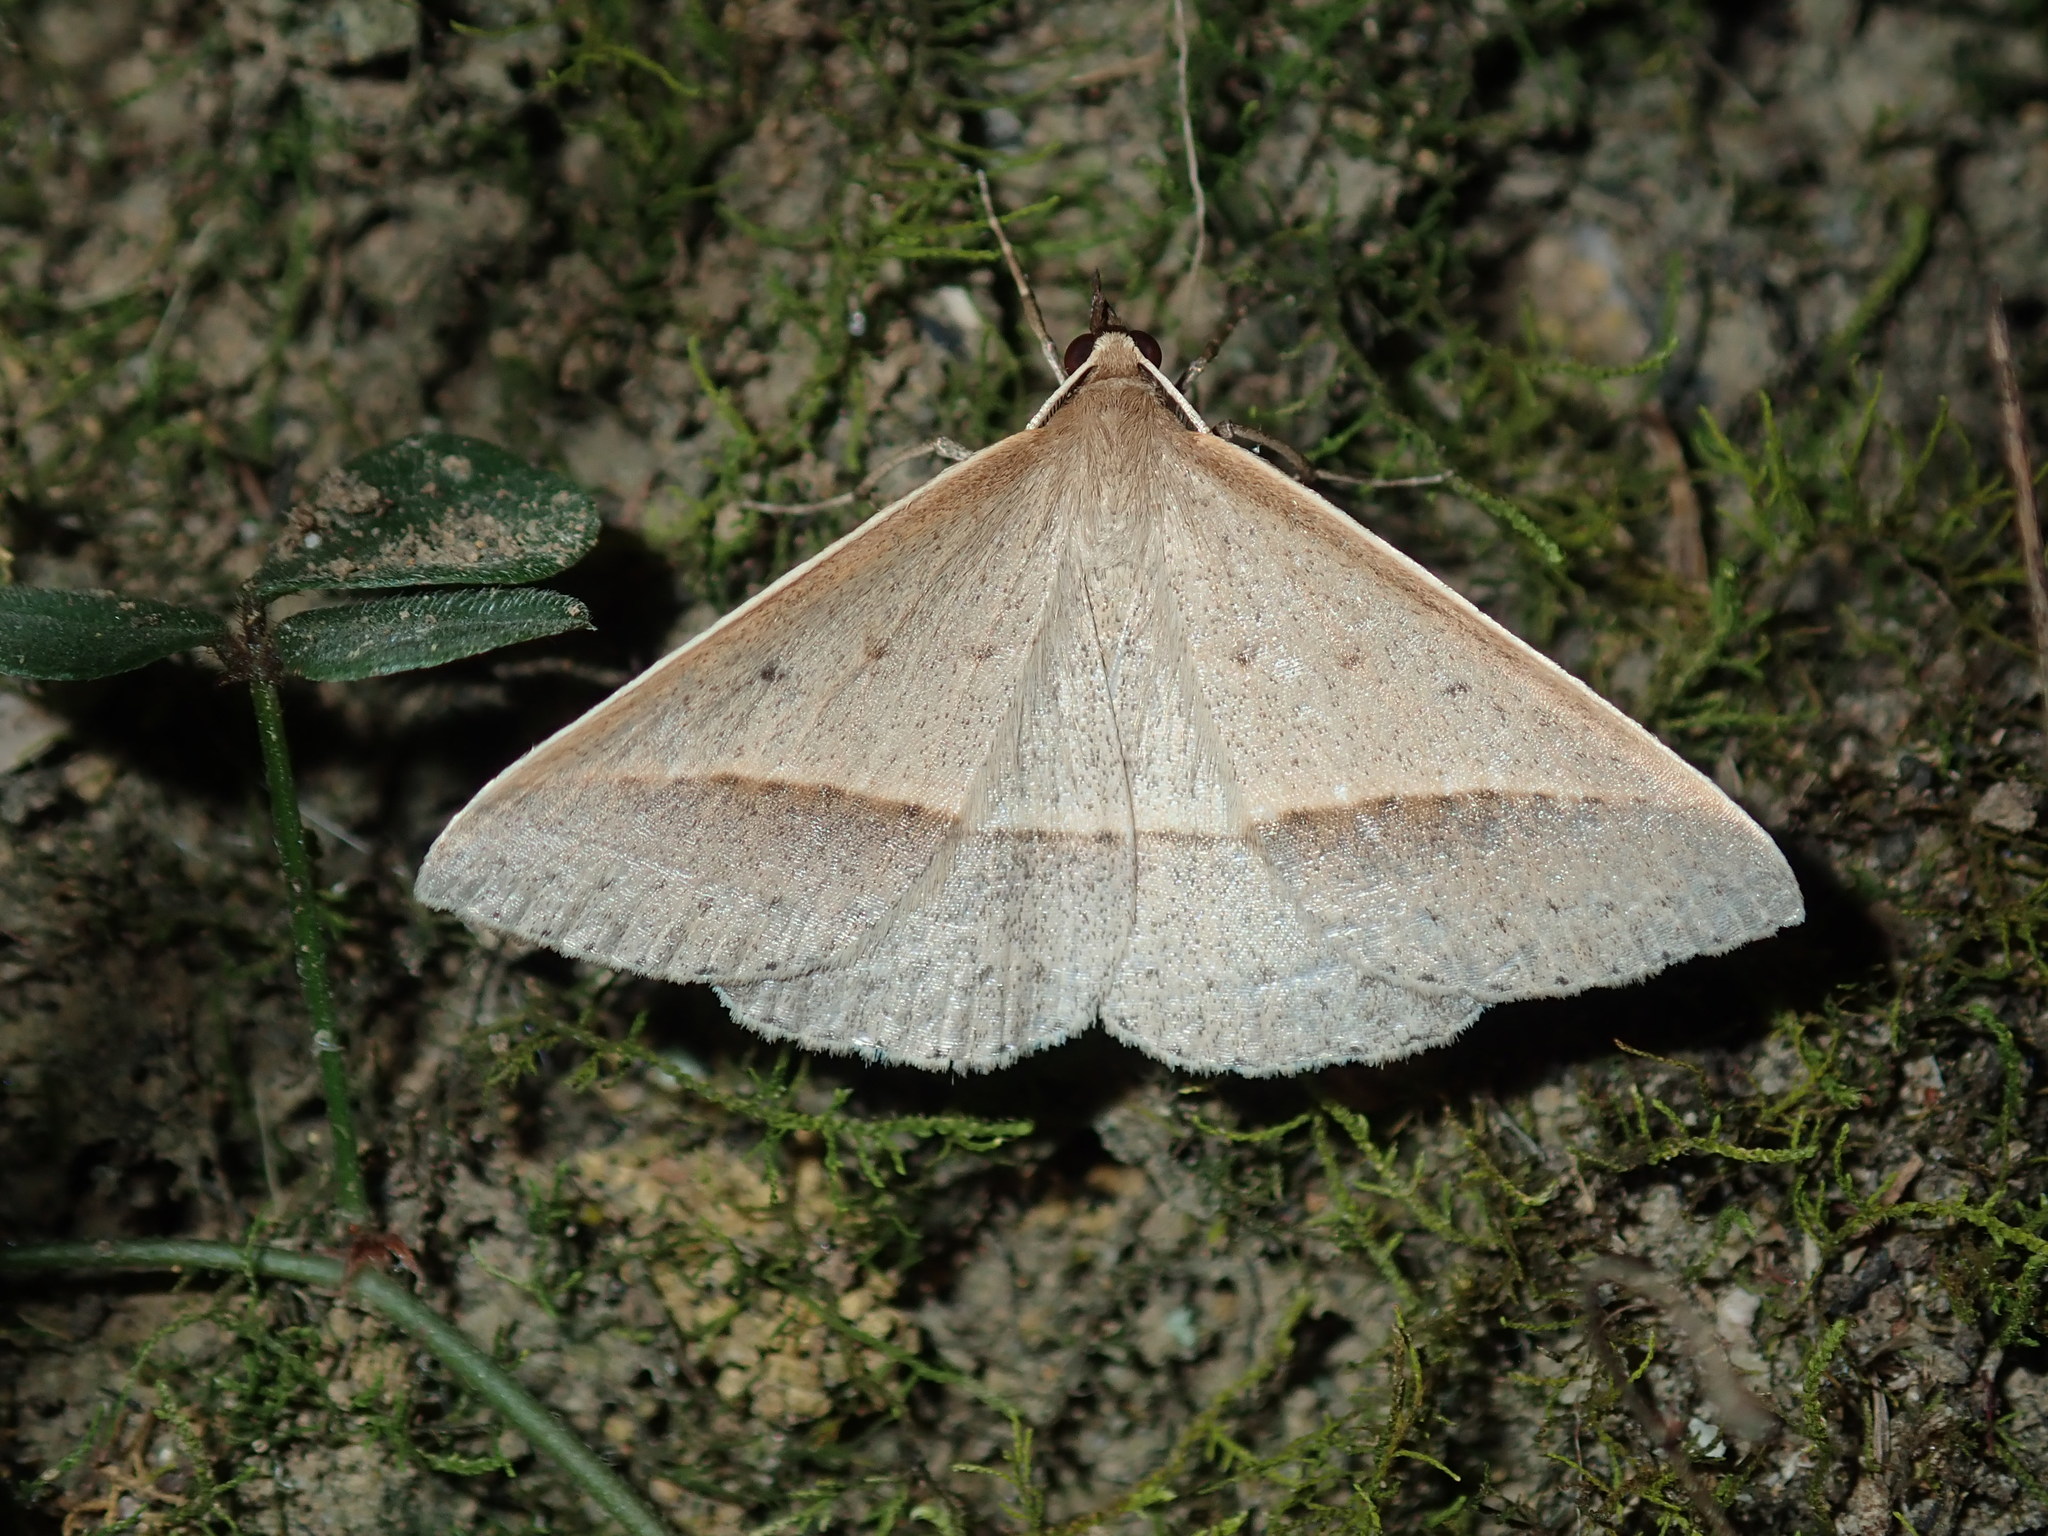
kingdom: Animalia
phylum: Arthropoda
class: Insecta
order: Lepidoptera
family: Geometridae
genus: Epidesmia
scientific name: Epidesmia tryxaria
